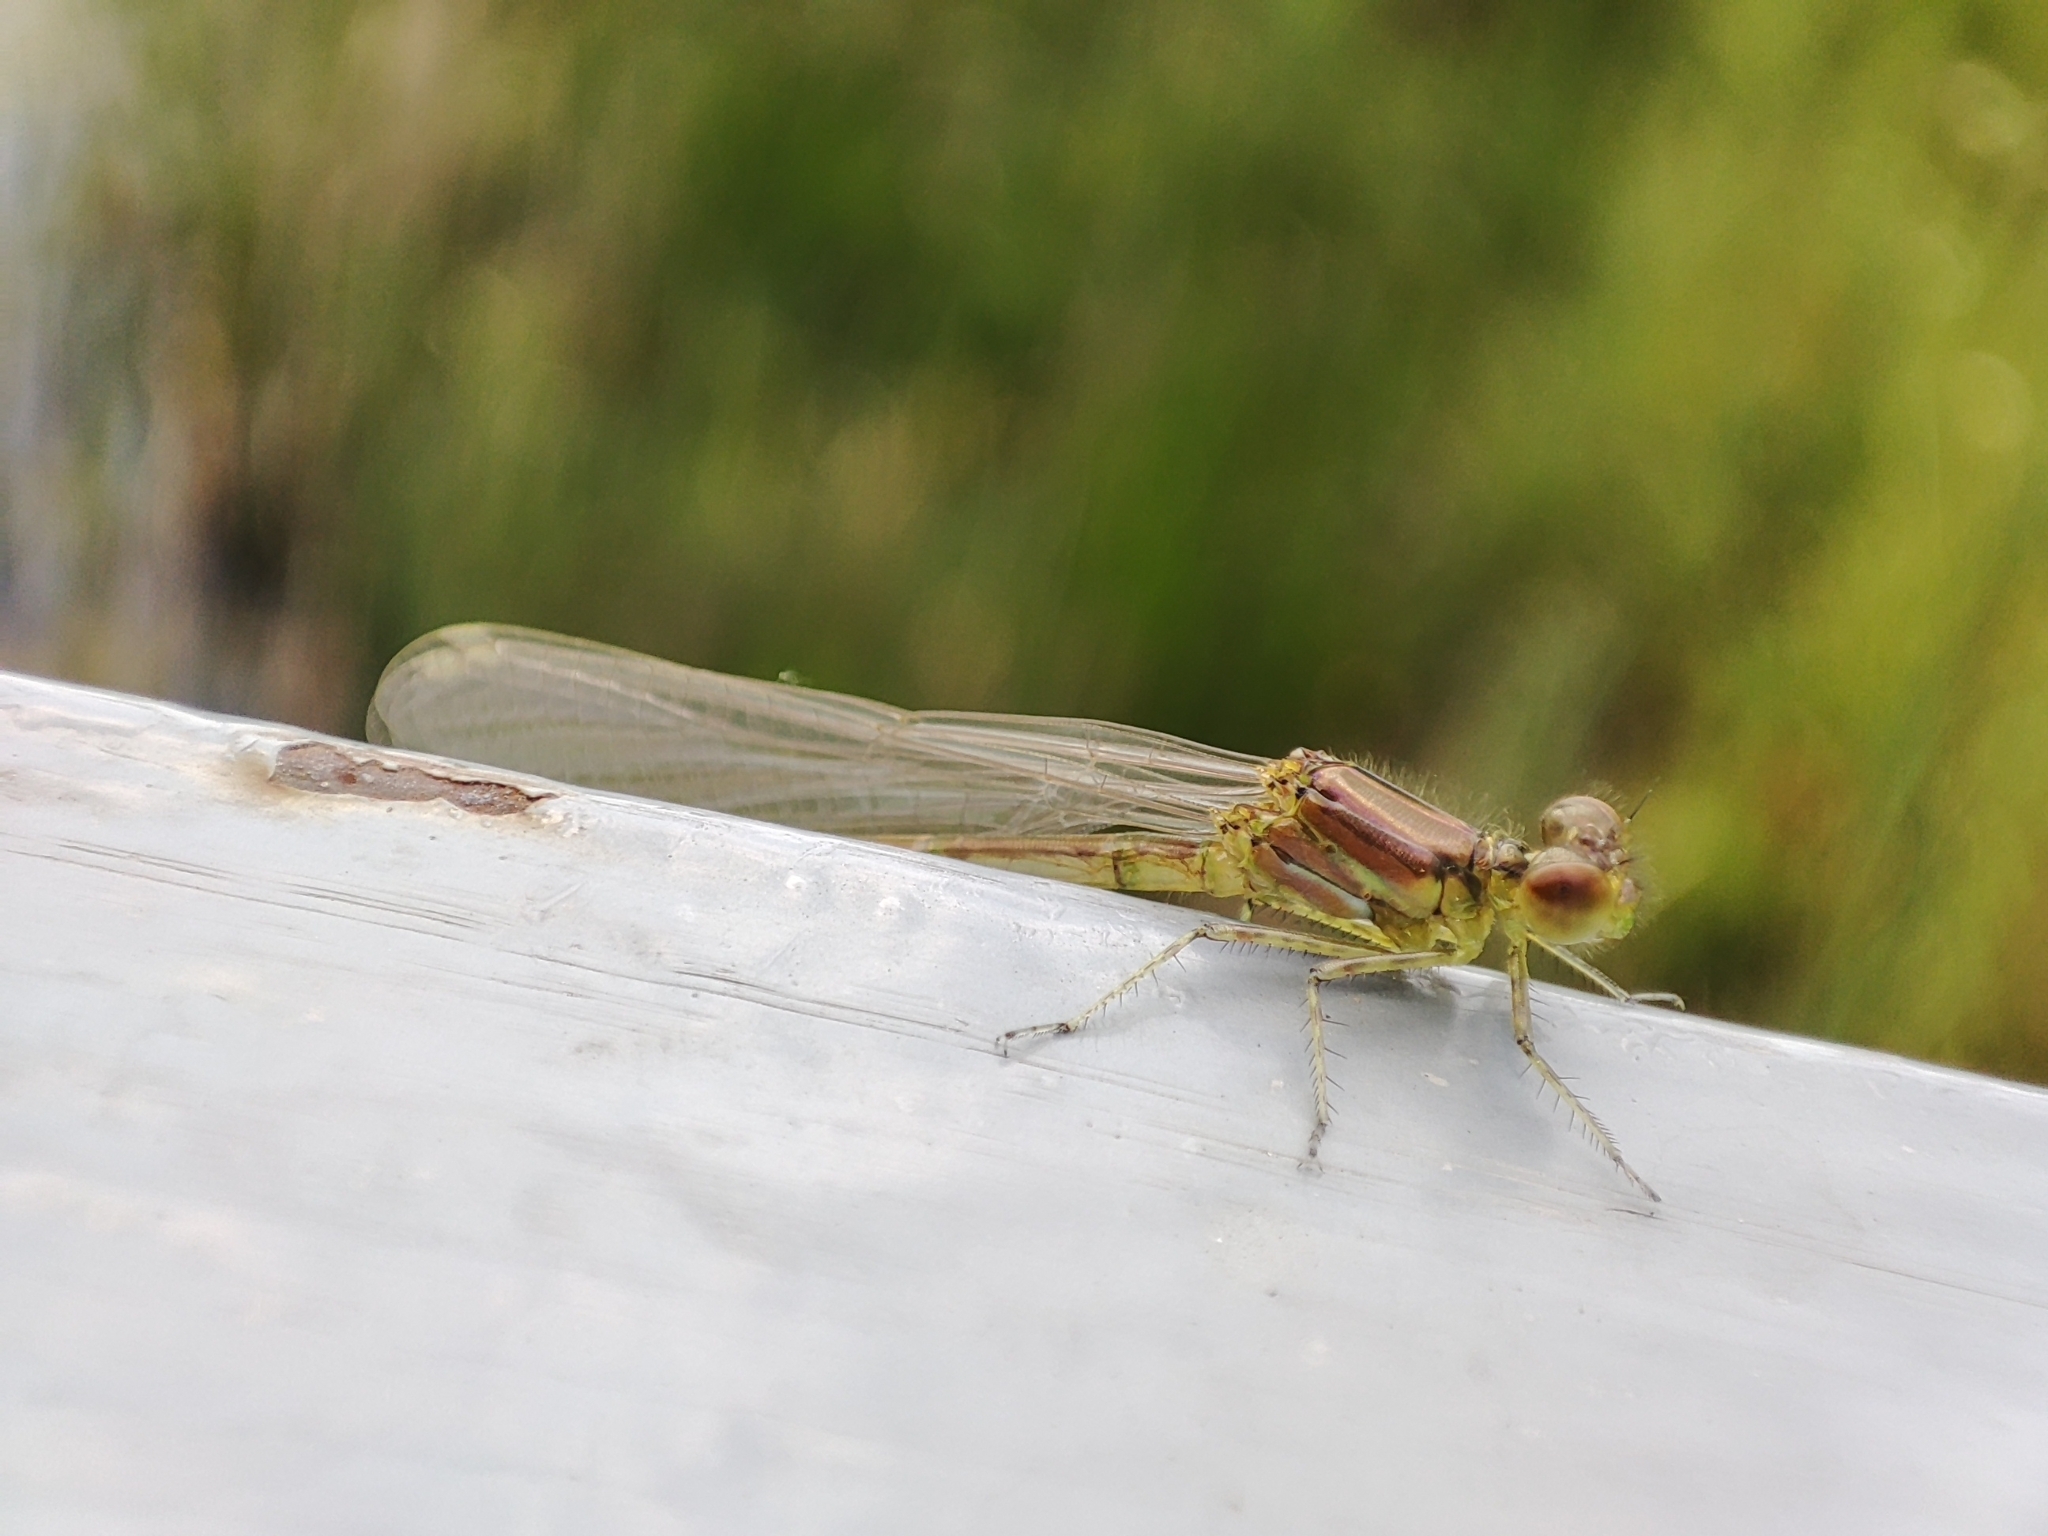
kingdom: Animalia
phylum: Arthropoda
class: Insecta
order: Odonata
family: Coenagrionidae
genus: Erythromma
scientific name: Erythromma viridulum
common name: Small red-eyed damselfly
